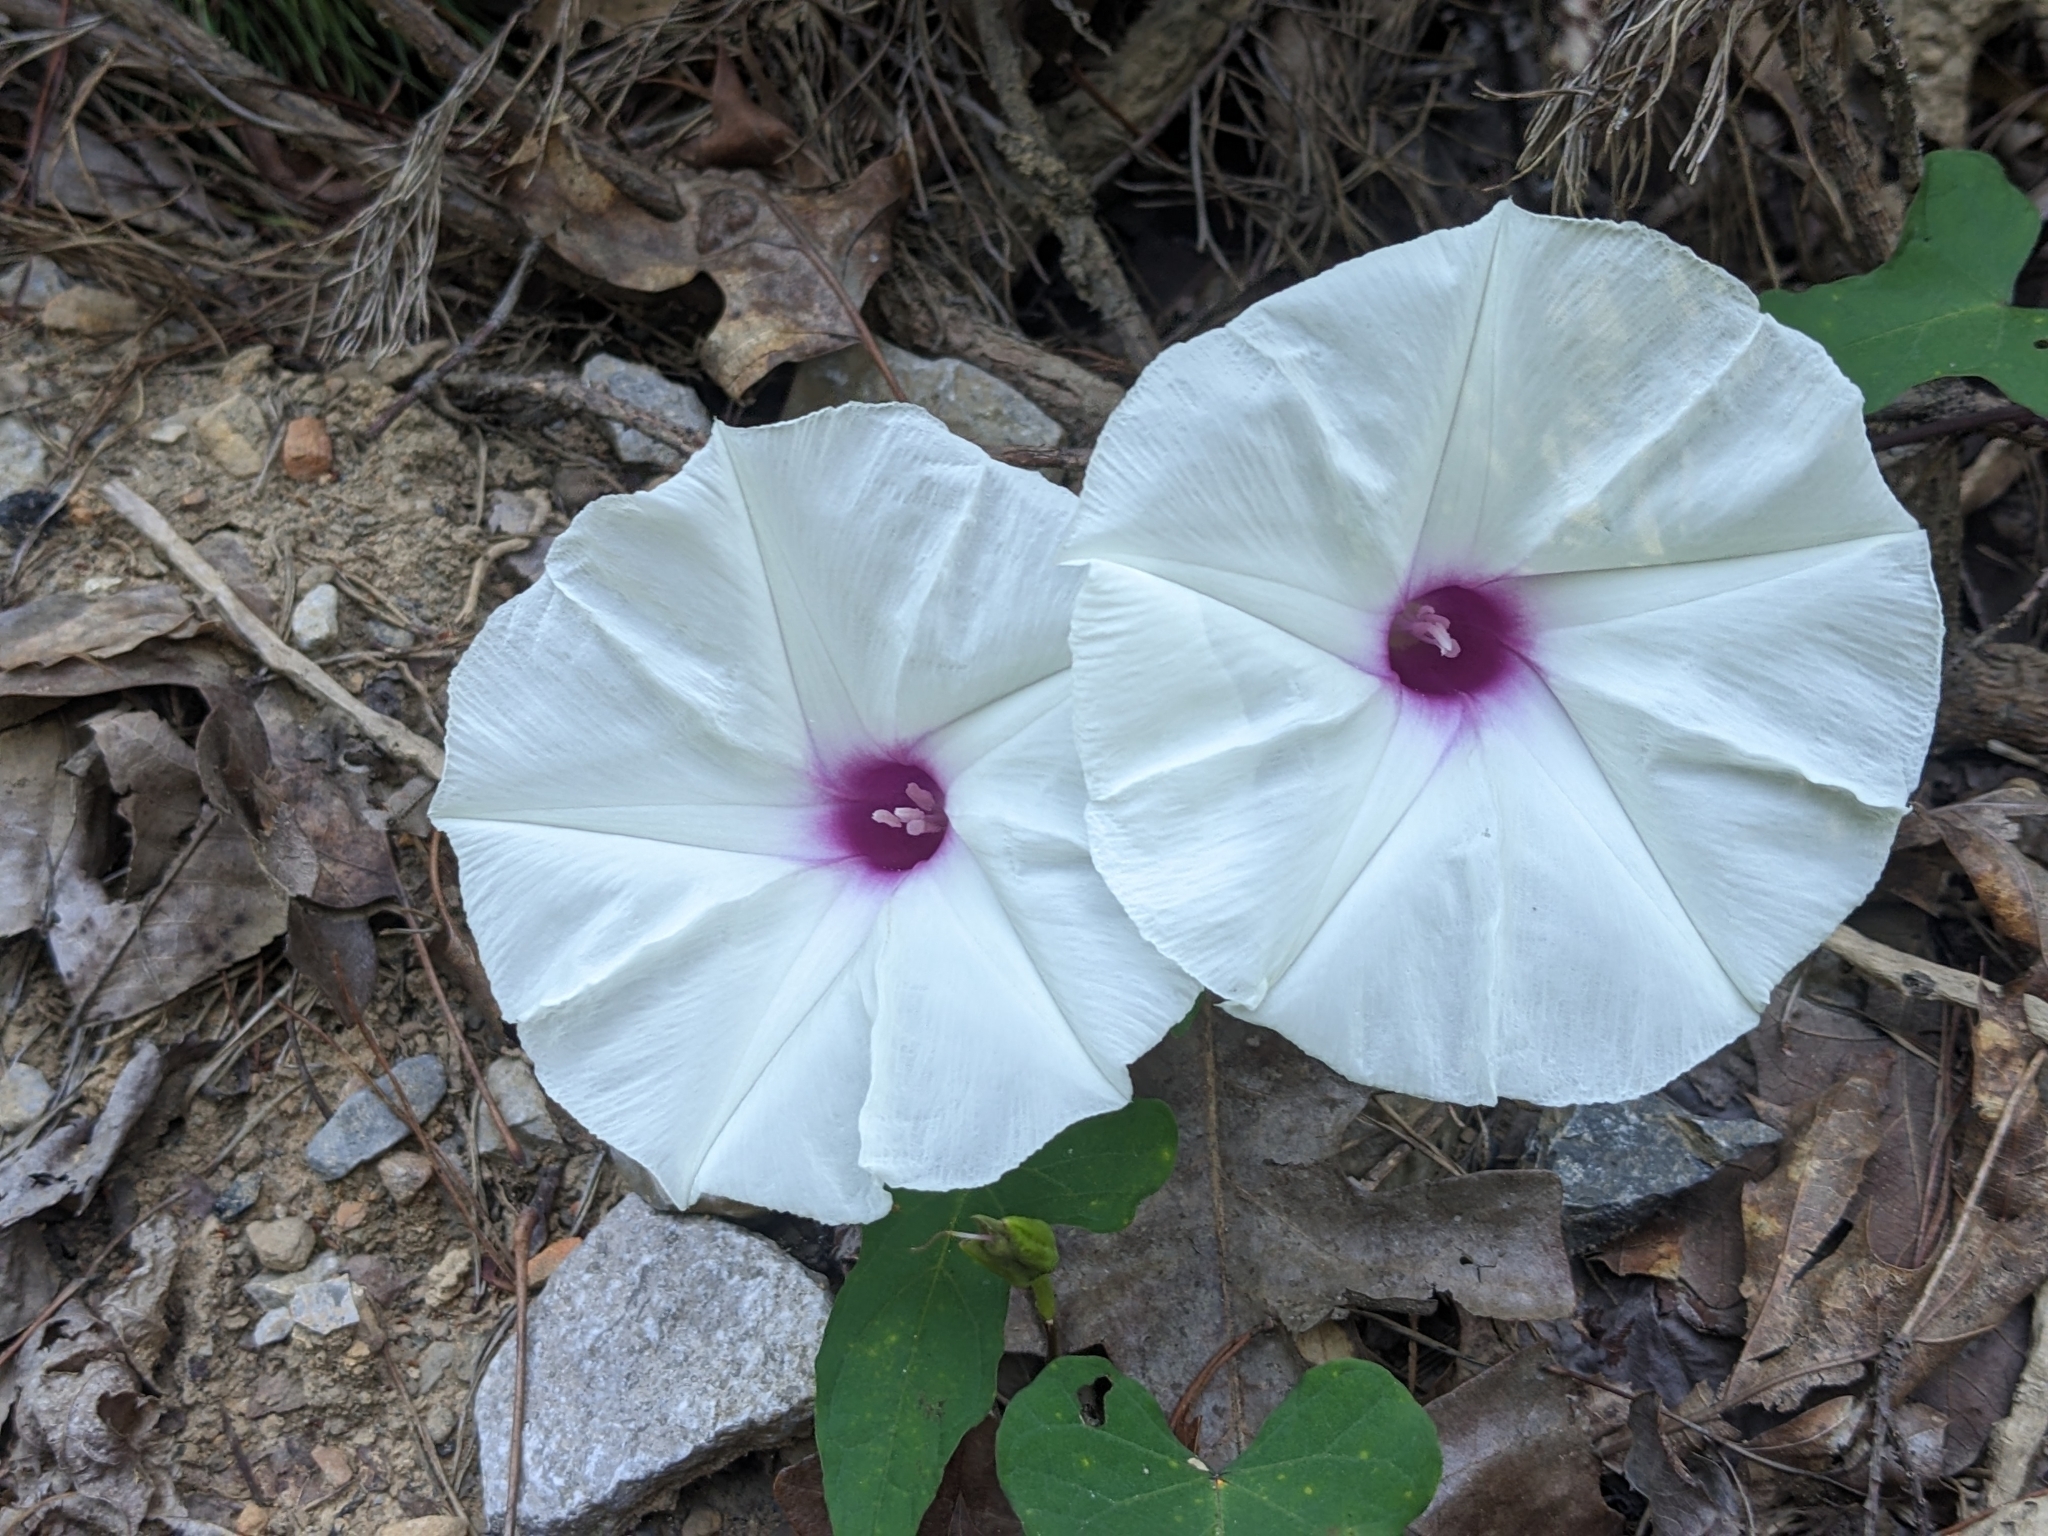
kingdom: Plantae
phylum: Tracheophyta
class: Magnoliopsida
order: Solanales
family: Convolvulaceae
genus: Ipomoea
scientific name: Ipomoea pandurata
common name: Man-of-the-earth
